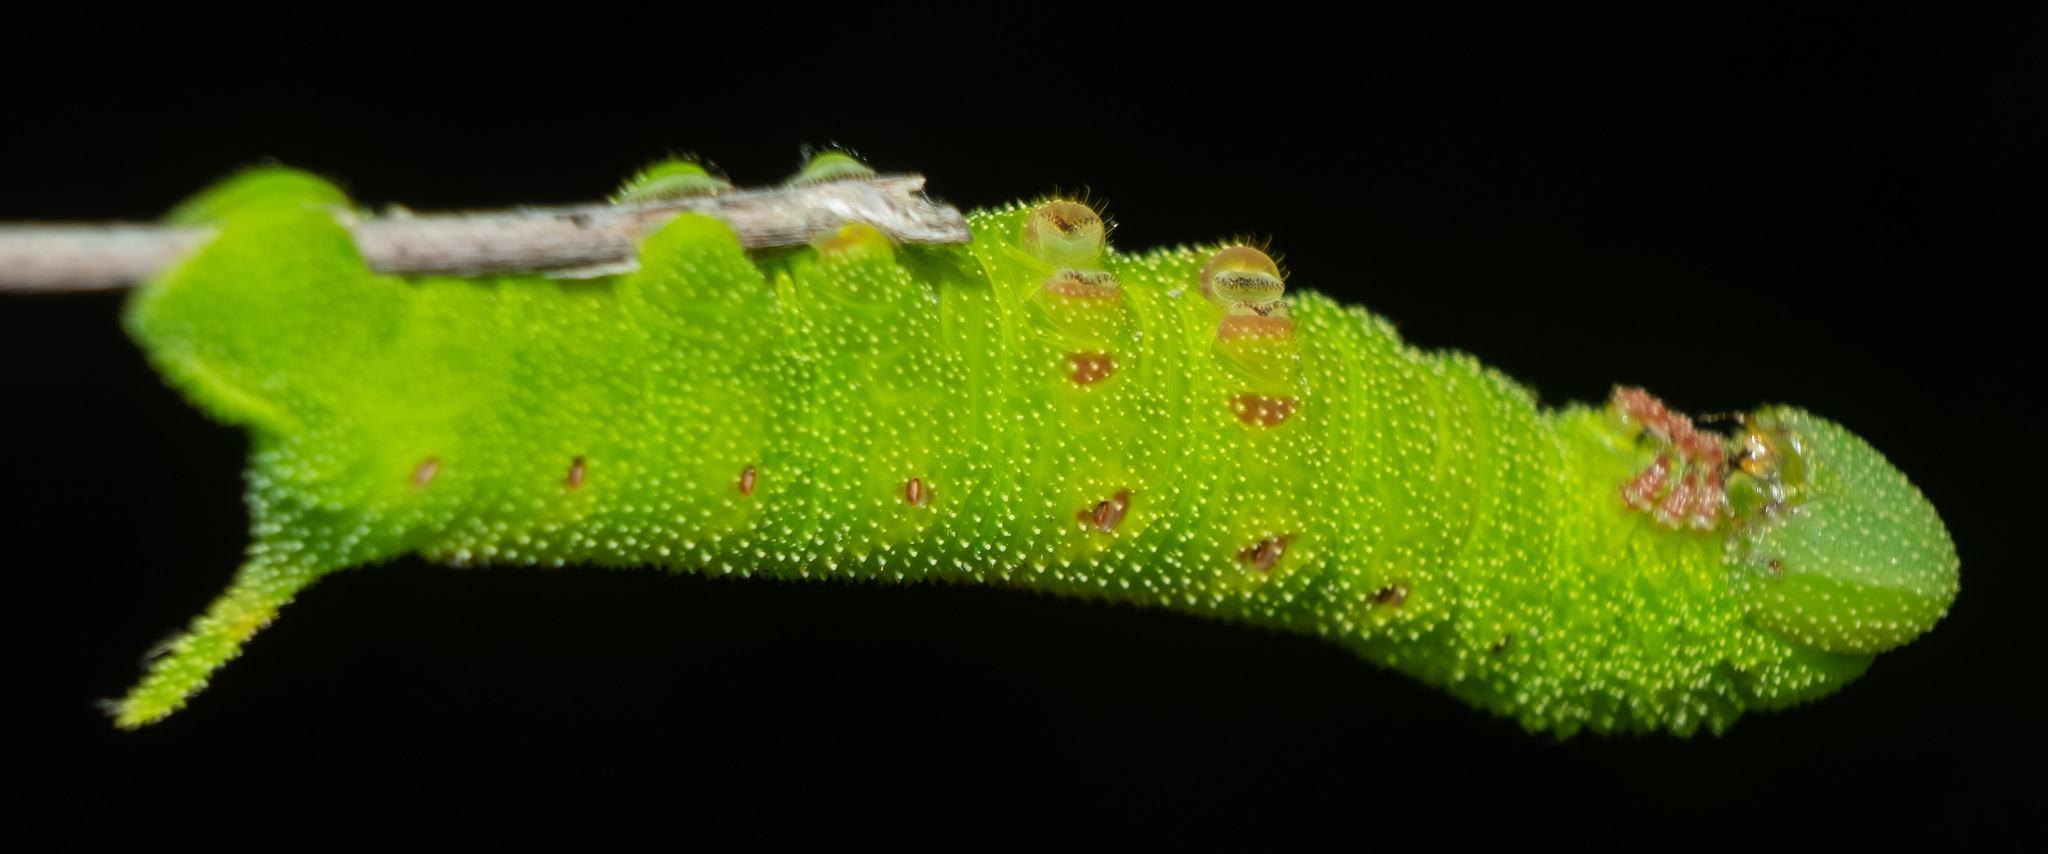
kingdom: Animalia
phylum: Arthropoda
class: Insecta
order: Lepidoptera
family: Sphingidae
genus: Paonias
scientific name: Paonias astylus
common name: Huckleberry sphinx
